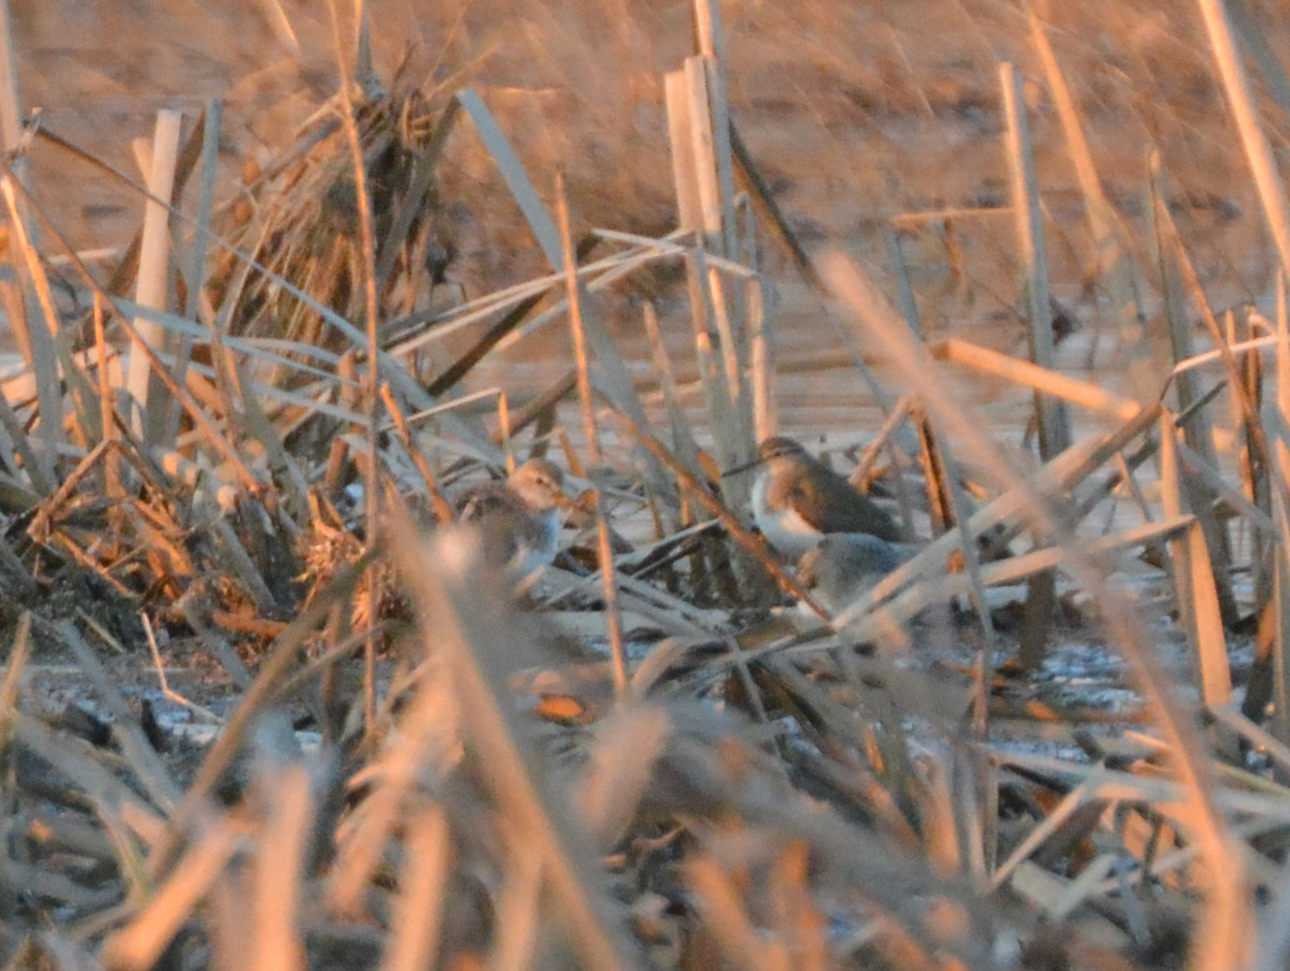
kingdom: Animalia
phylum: Chordata
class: Aves
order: Charadriiformes
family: Scolopacidae
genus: Actitis
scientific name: Actitis hypoleucos
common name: Common sandpiper
